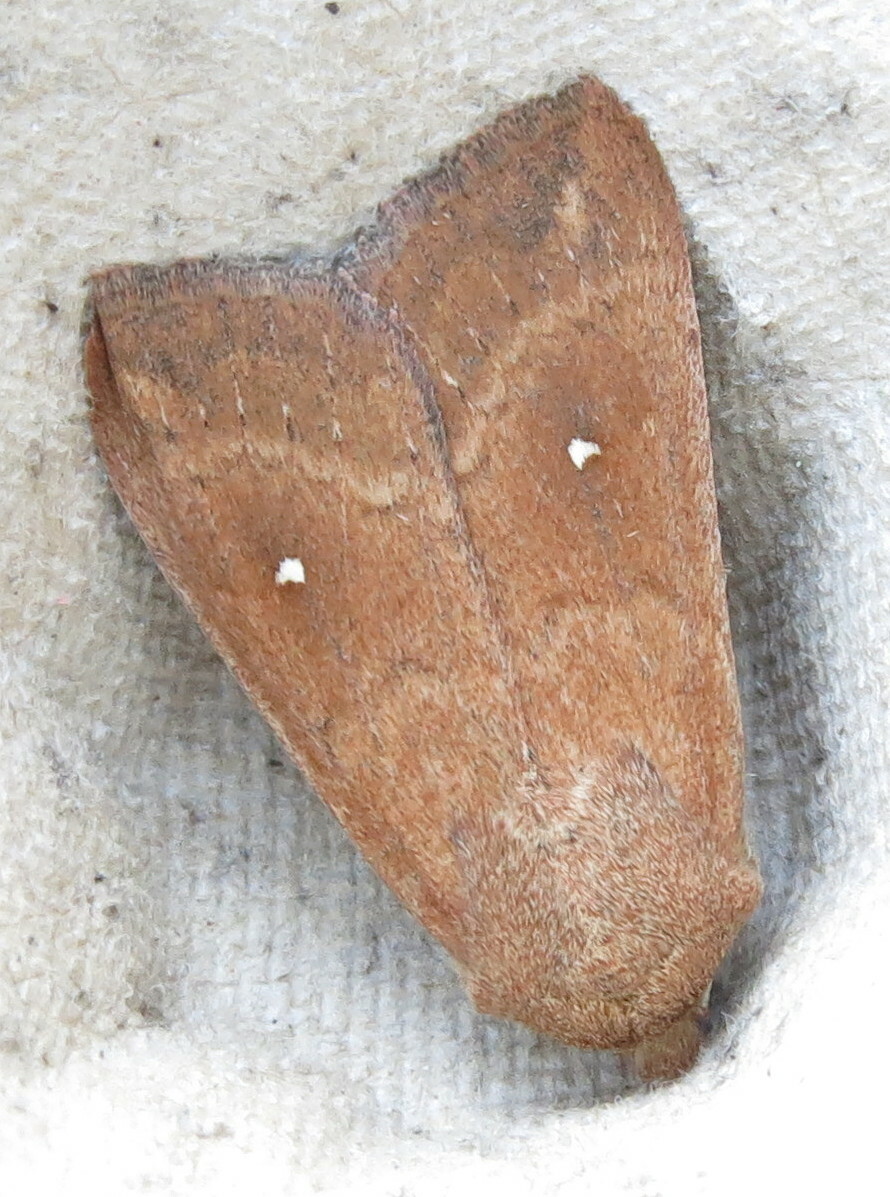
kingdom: Animalia
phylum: Arthropoda
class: Insecta
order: Lepidoptera
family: Noctuidae
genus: Mythimna
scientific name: Mythimna albipuncta
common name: White-point
